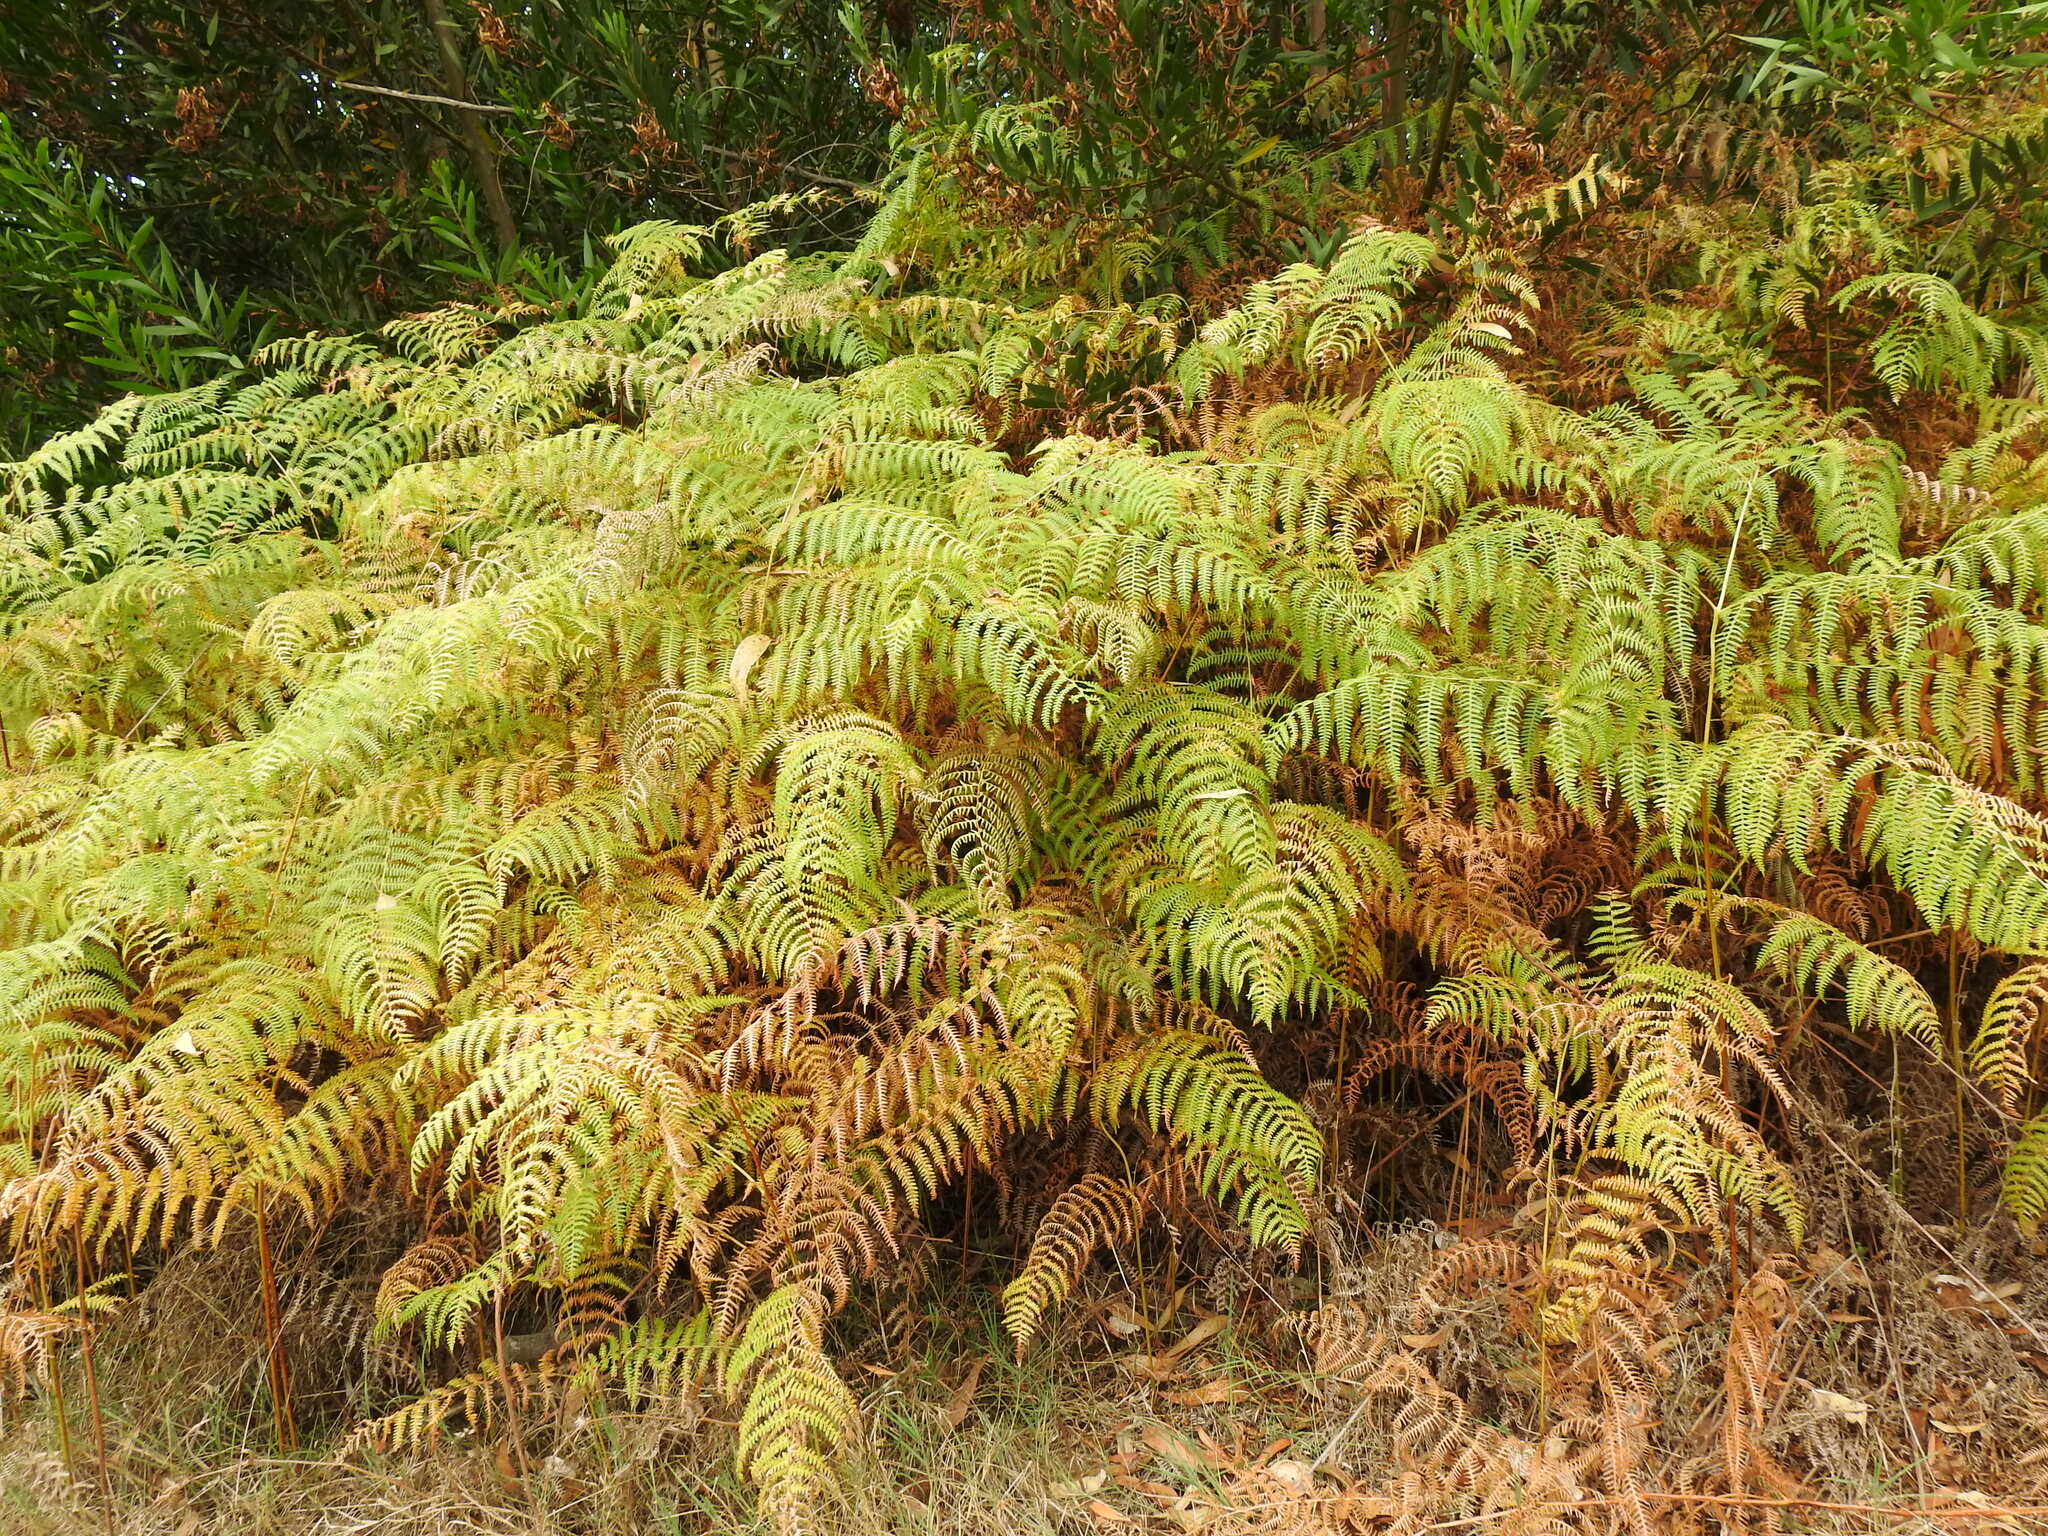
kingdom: Plantae
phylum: Tracheophyta
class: Polypodiopsida
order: Polypodiales
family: Dennstaedtiaceae
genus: Pteridium
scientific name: Pteridium aquilinum
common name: Bracken
